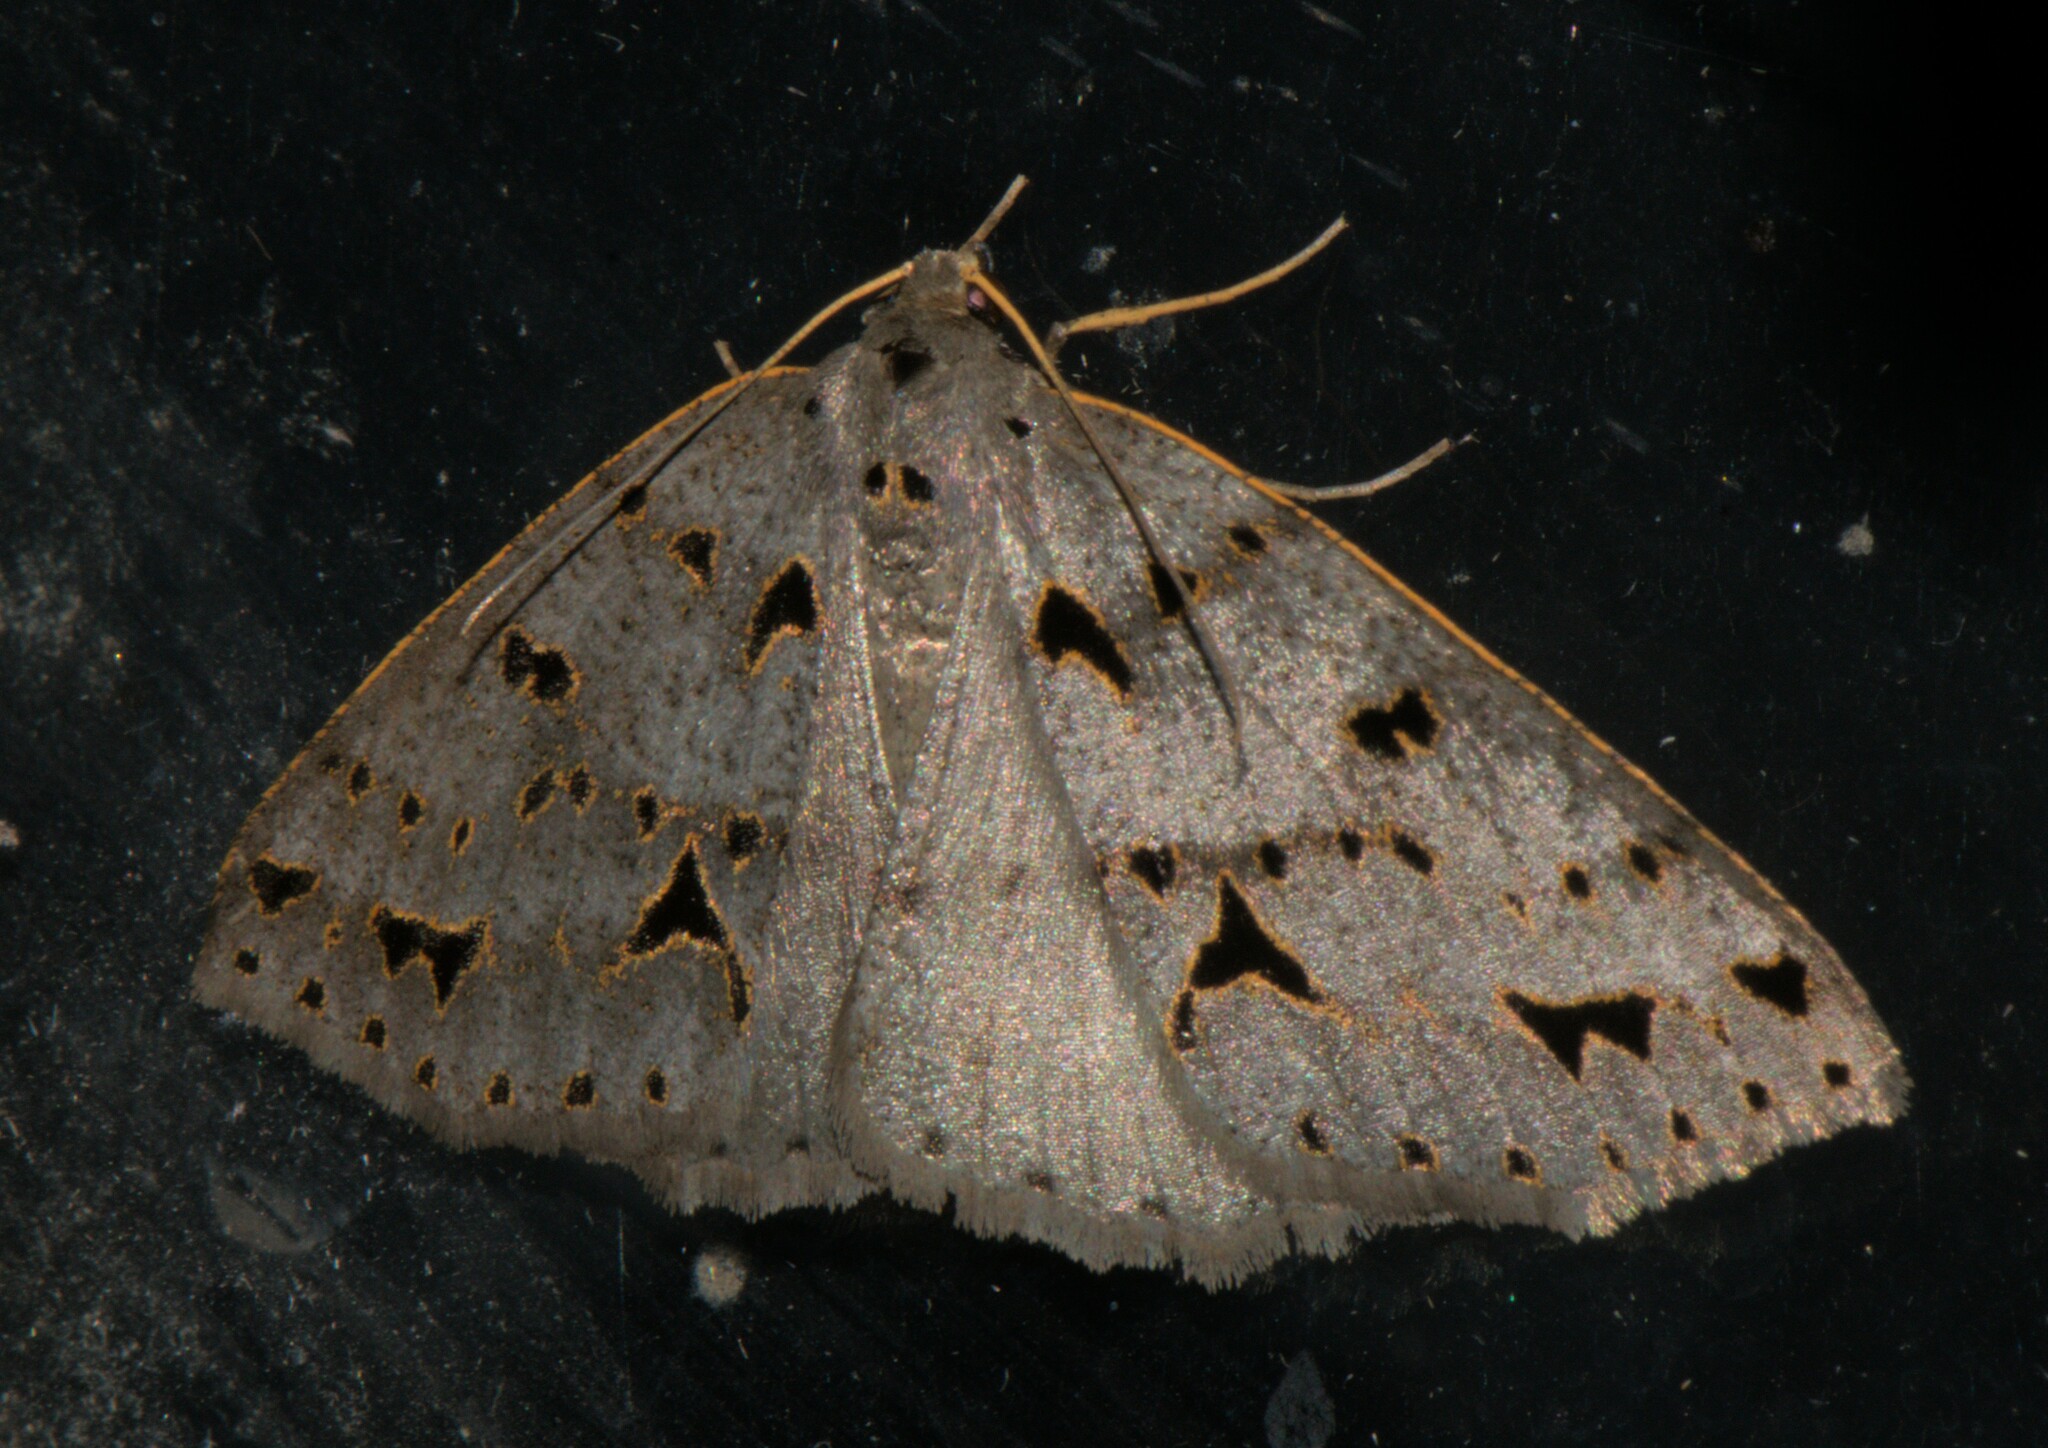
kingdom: Animalia
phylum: Arthropoda
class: Insecta
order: Lepidoptera
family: Geometridae
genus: Psyra
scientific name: Psyra angulifera
